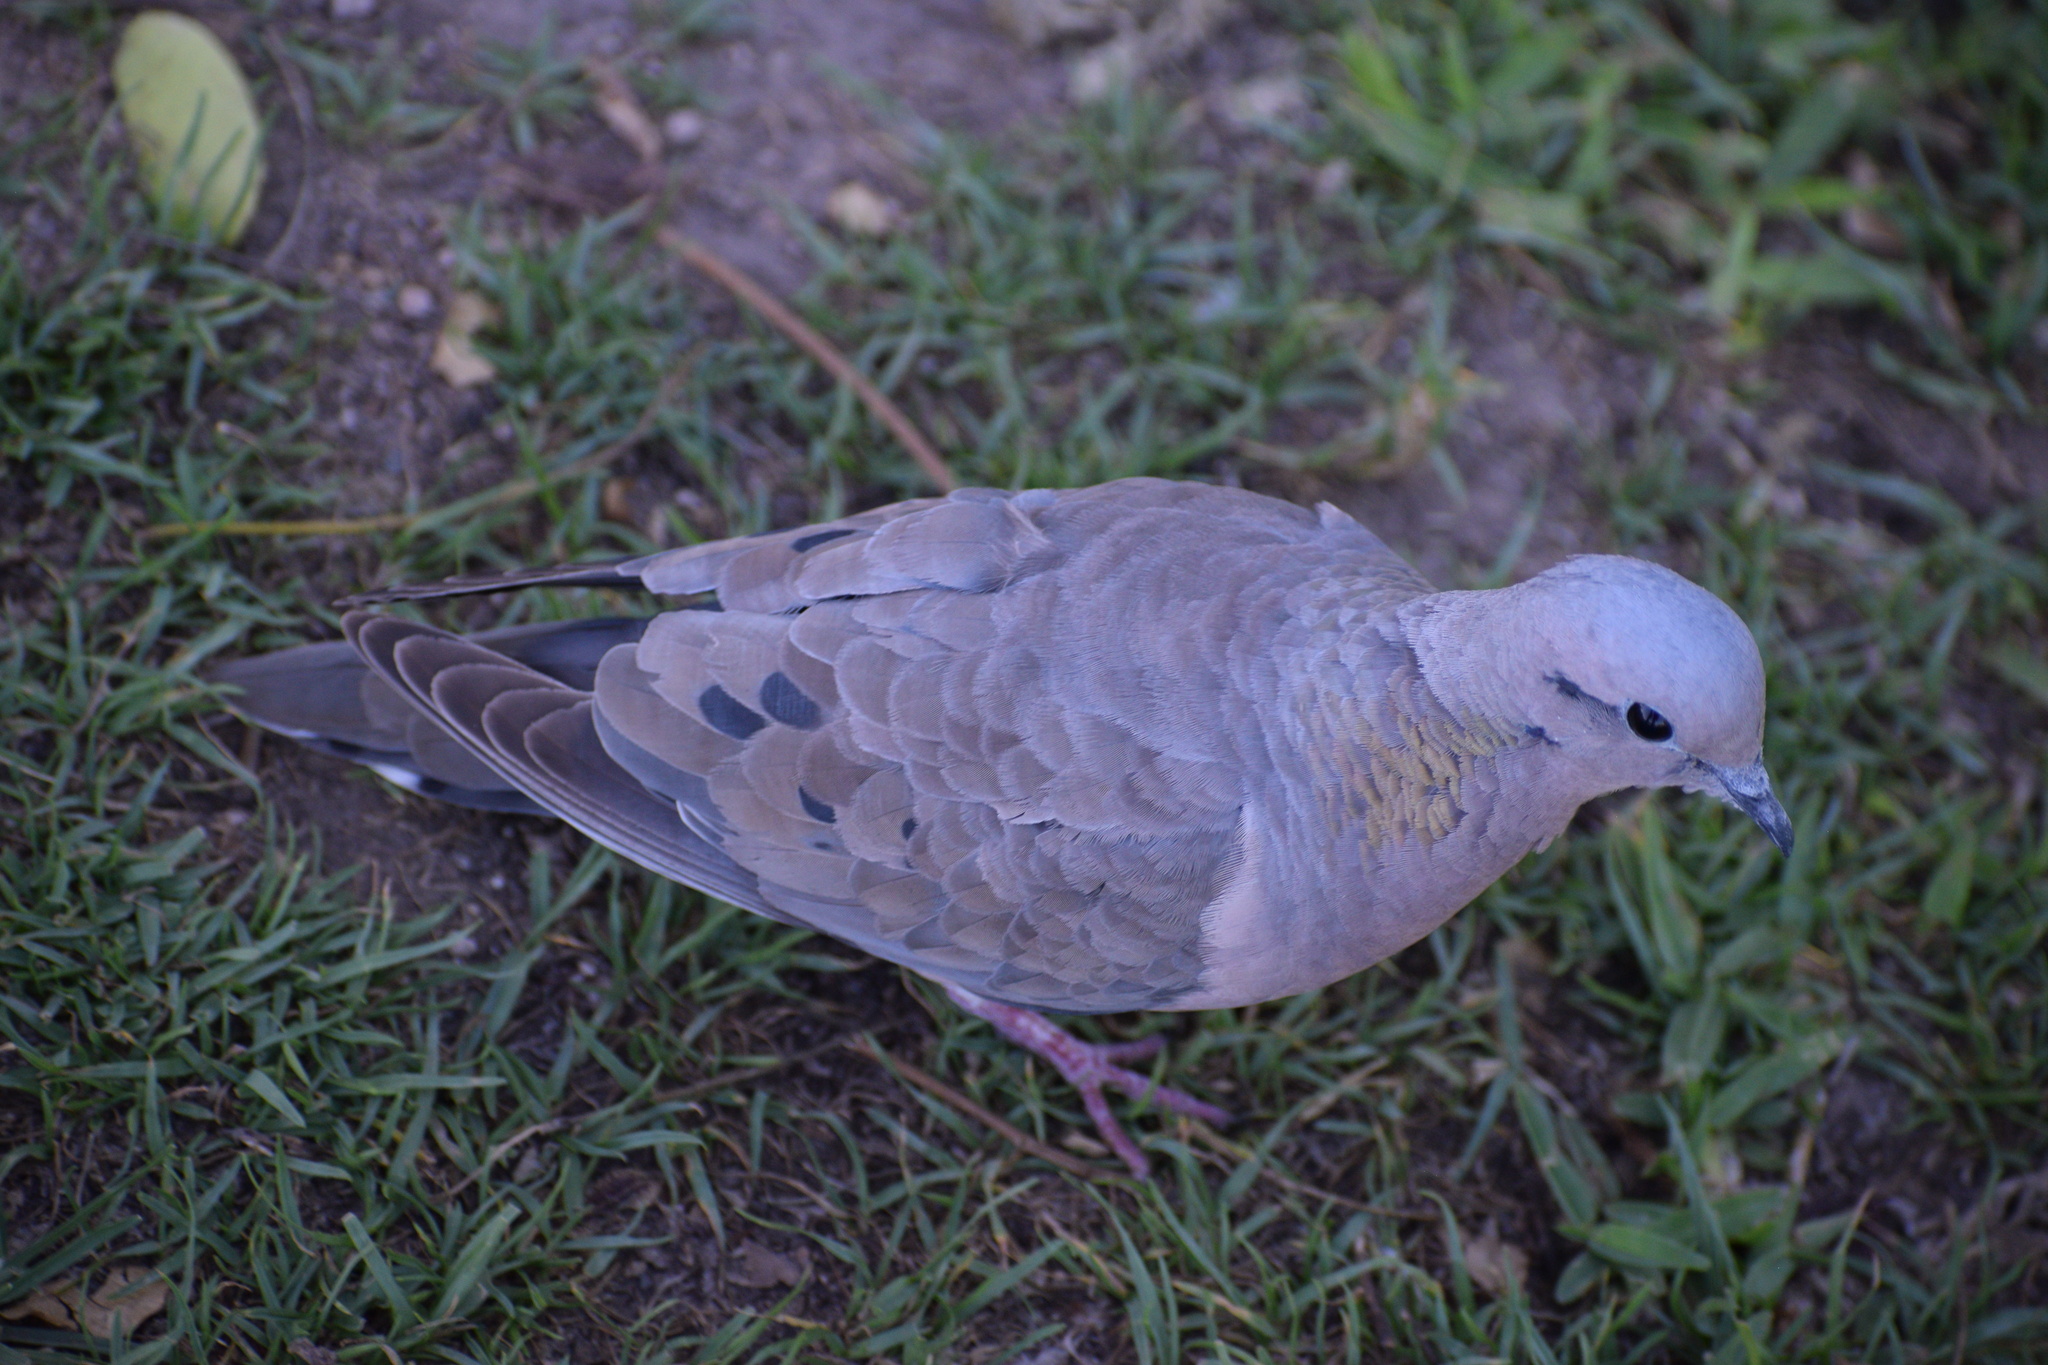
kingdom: Animalia
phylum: Chordata
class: Aves
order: Columbiformes
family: Columbidae
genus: Zenaida
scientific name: Zenaida auriculata
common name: Eared dove
